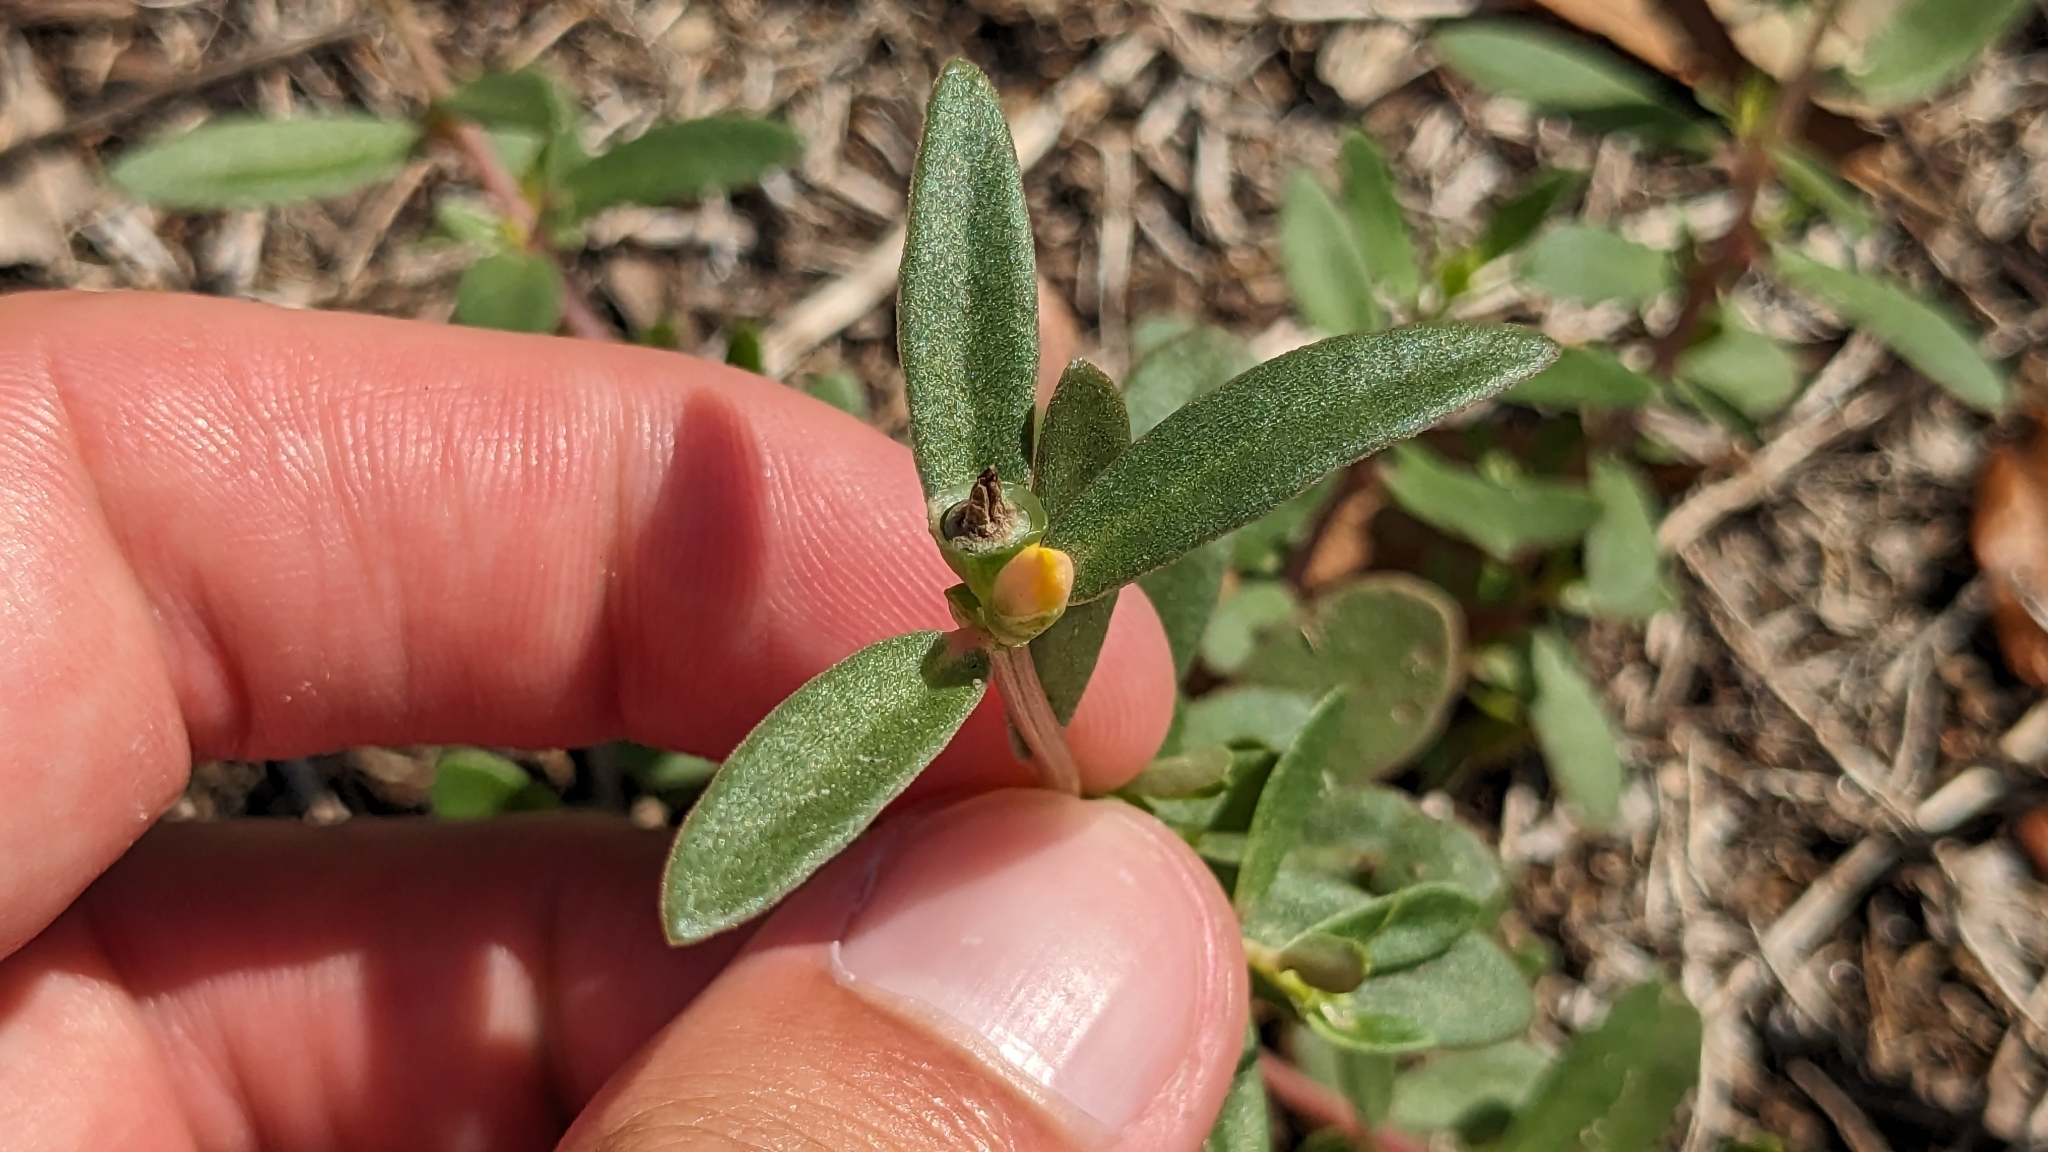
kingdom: Plantae
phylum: Tracheophyta
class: Magnoliopsida
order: Caryophyllales
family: Portulacaceae
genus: Portulaca
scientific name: Portulaca umbraticola
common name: Wingpod purslane
